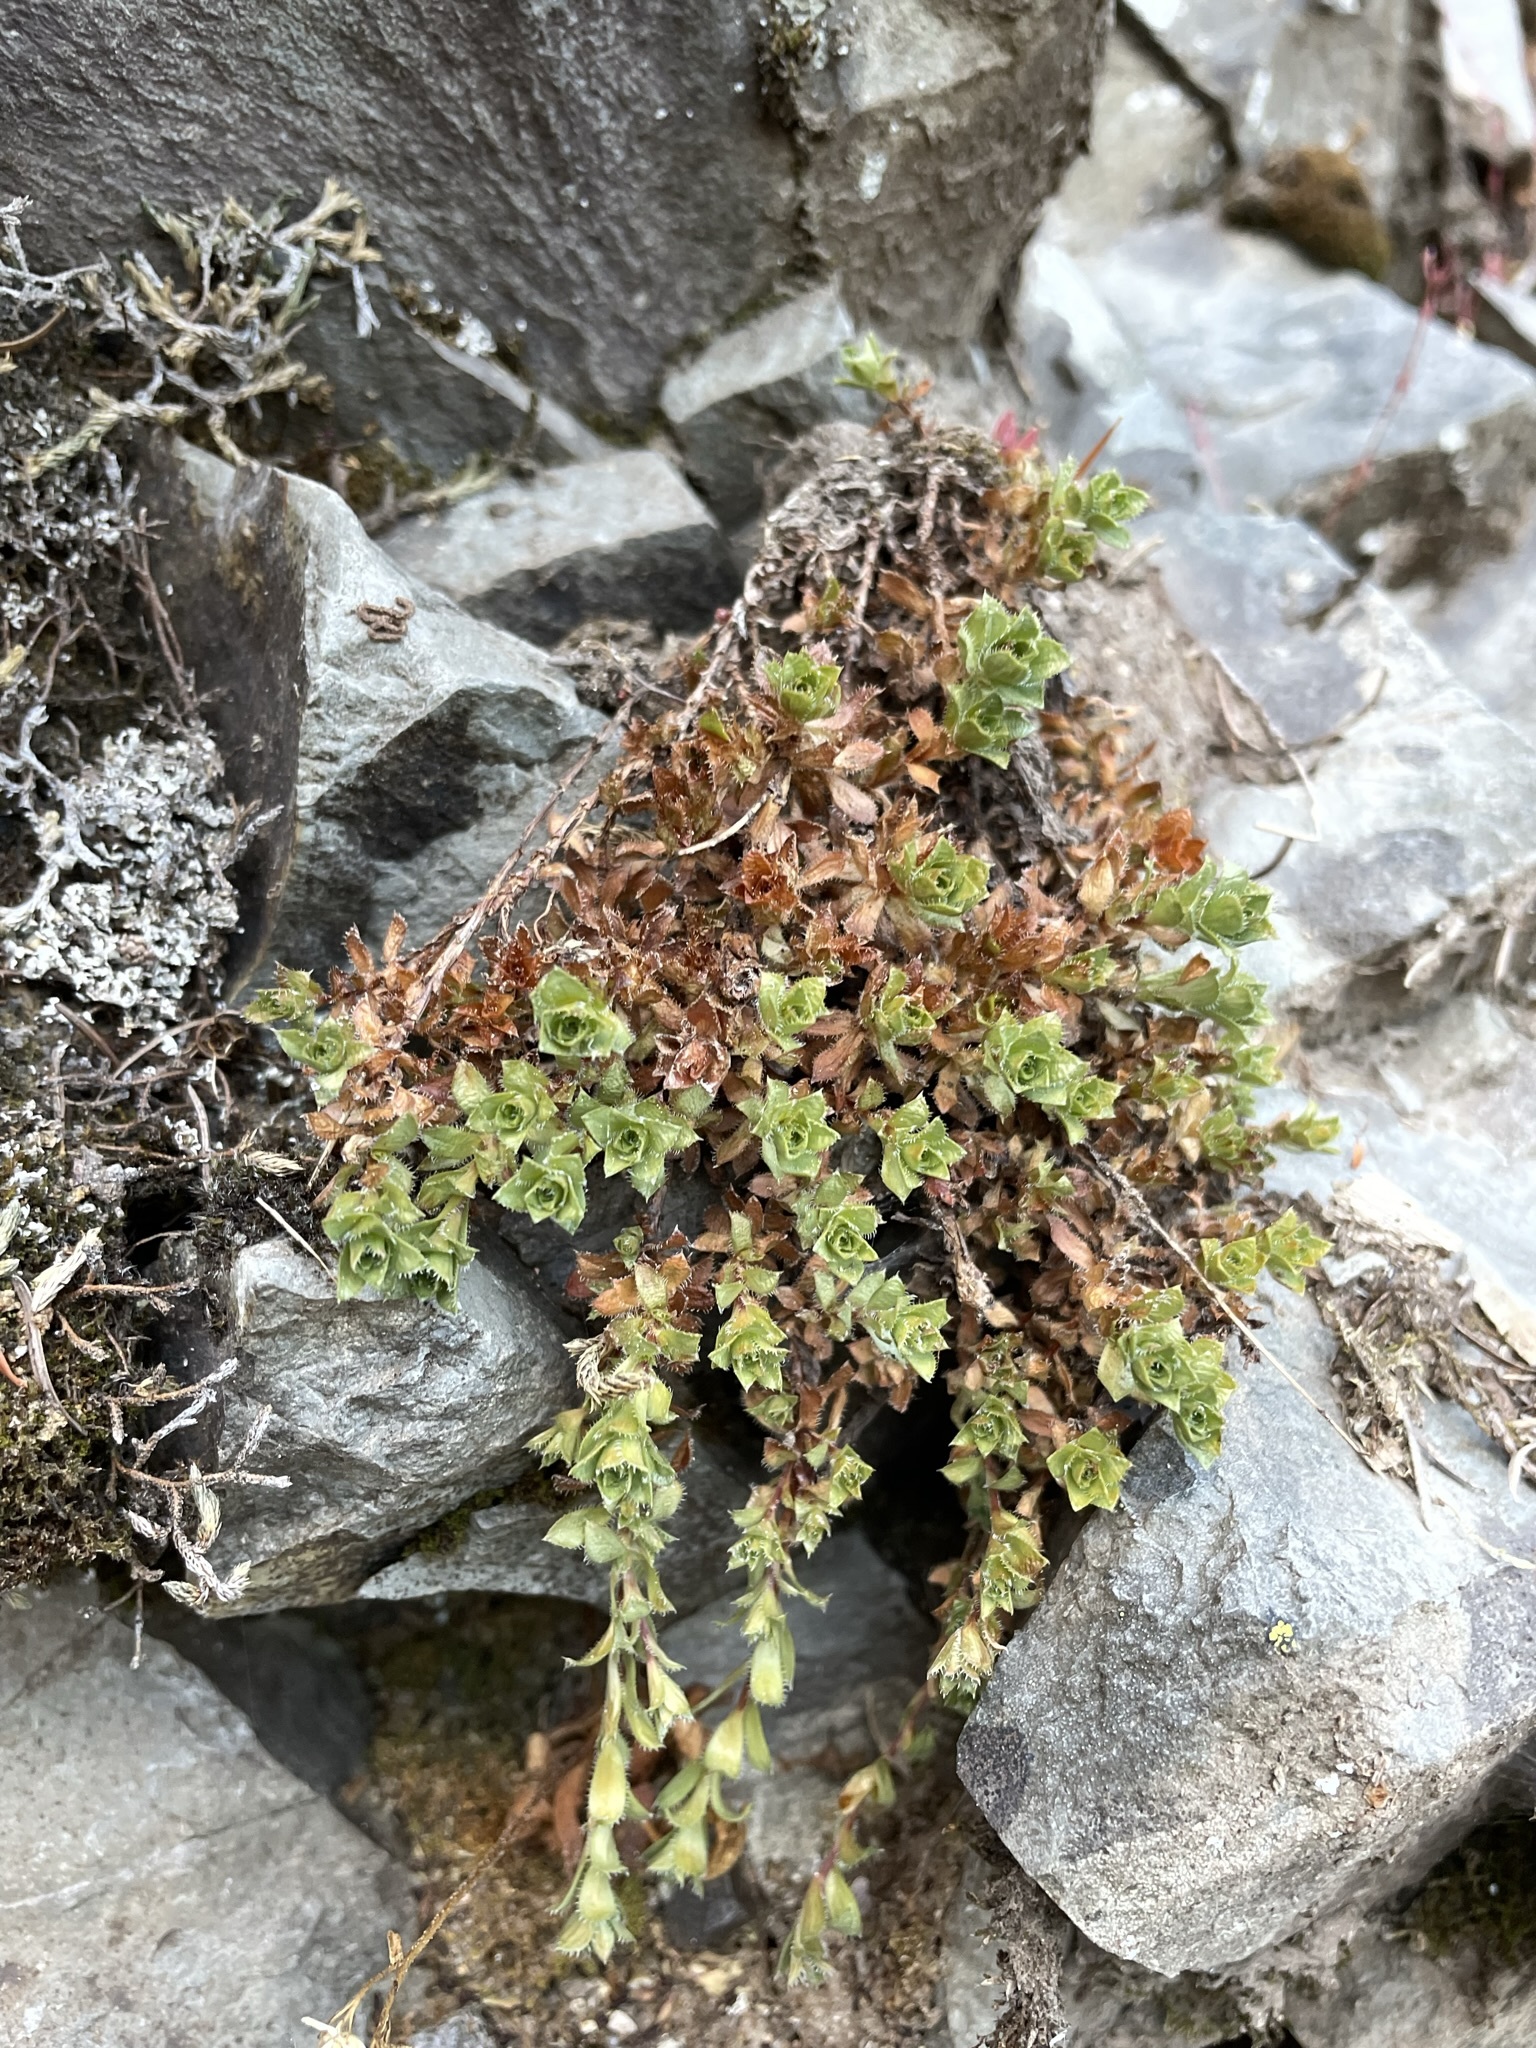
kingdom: Plantae
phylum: Tracheophyta
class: Magnoliopsida
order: Saxifragales
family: Saxifragaceae
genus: Saxifraga
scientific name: Saxifraga vespertina
